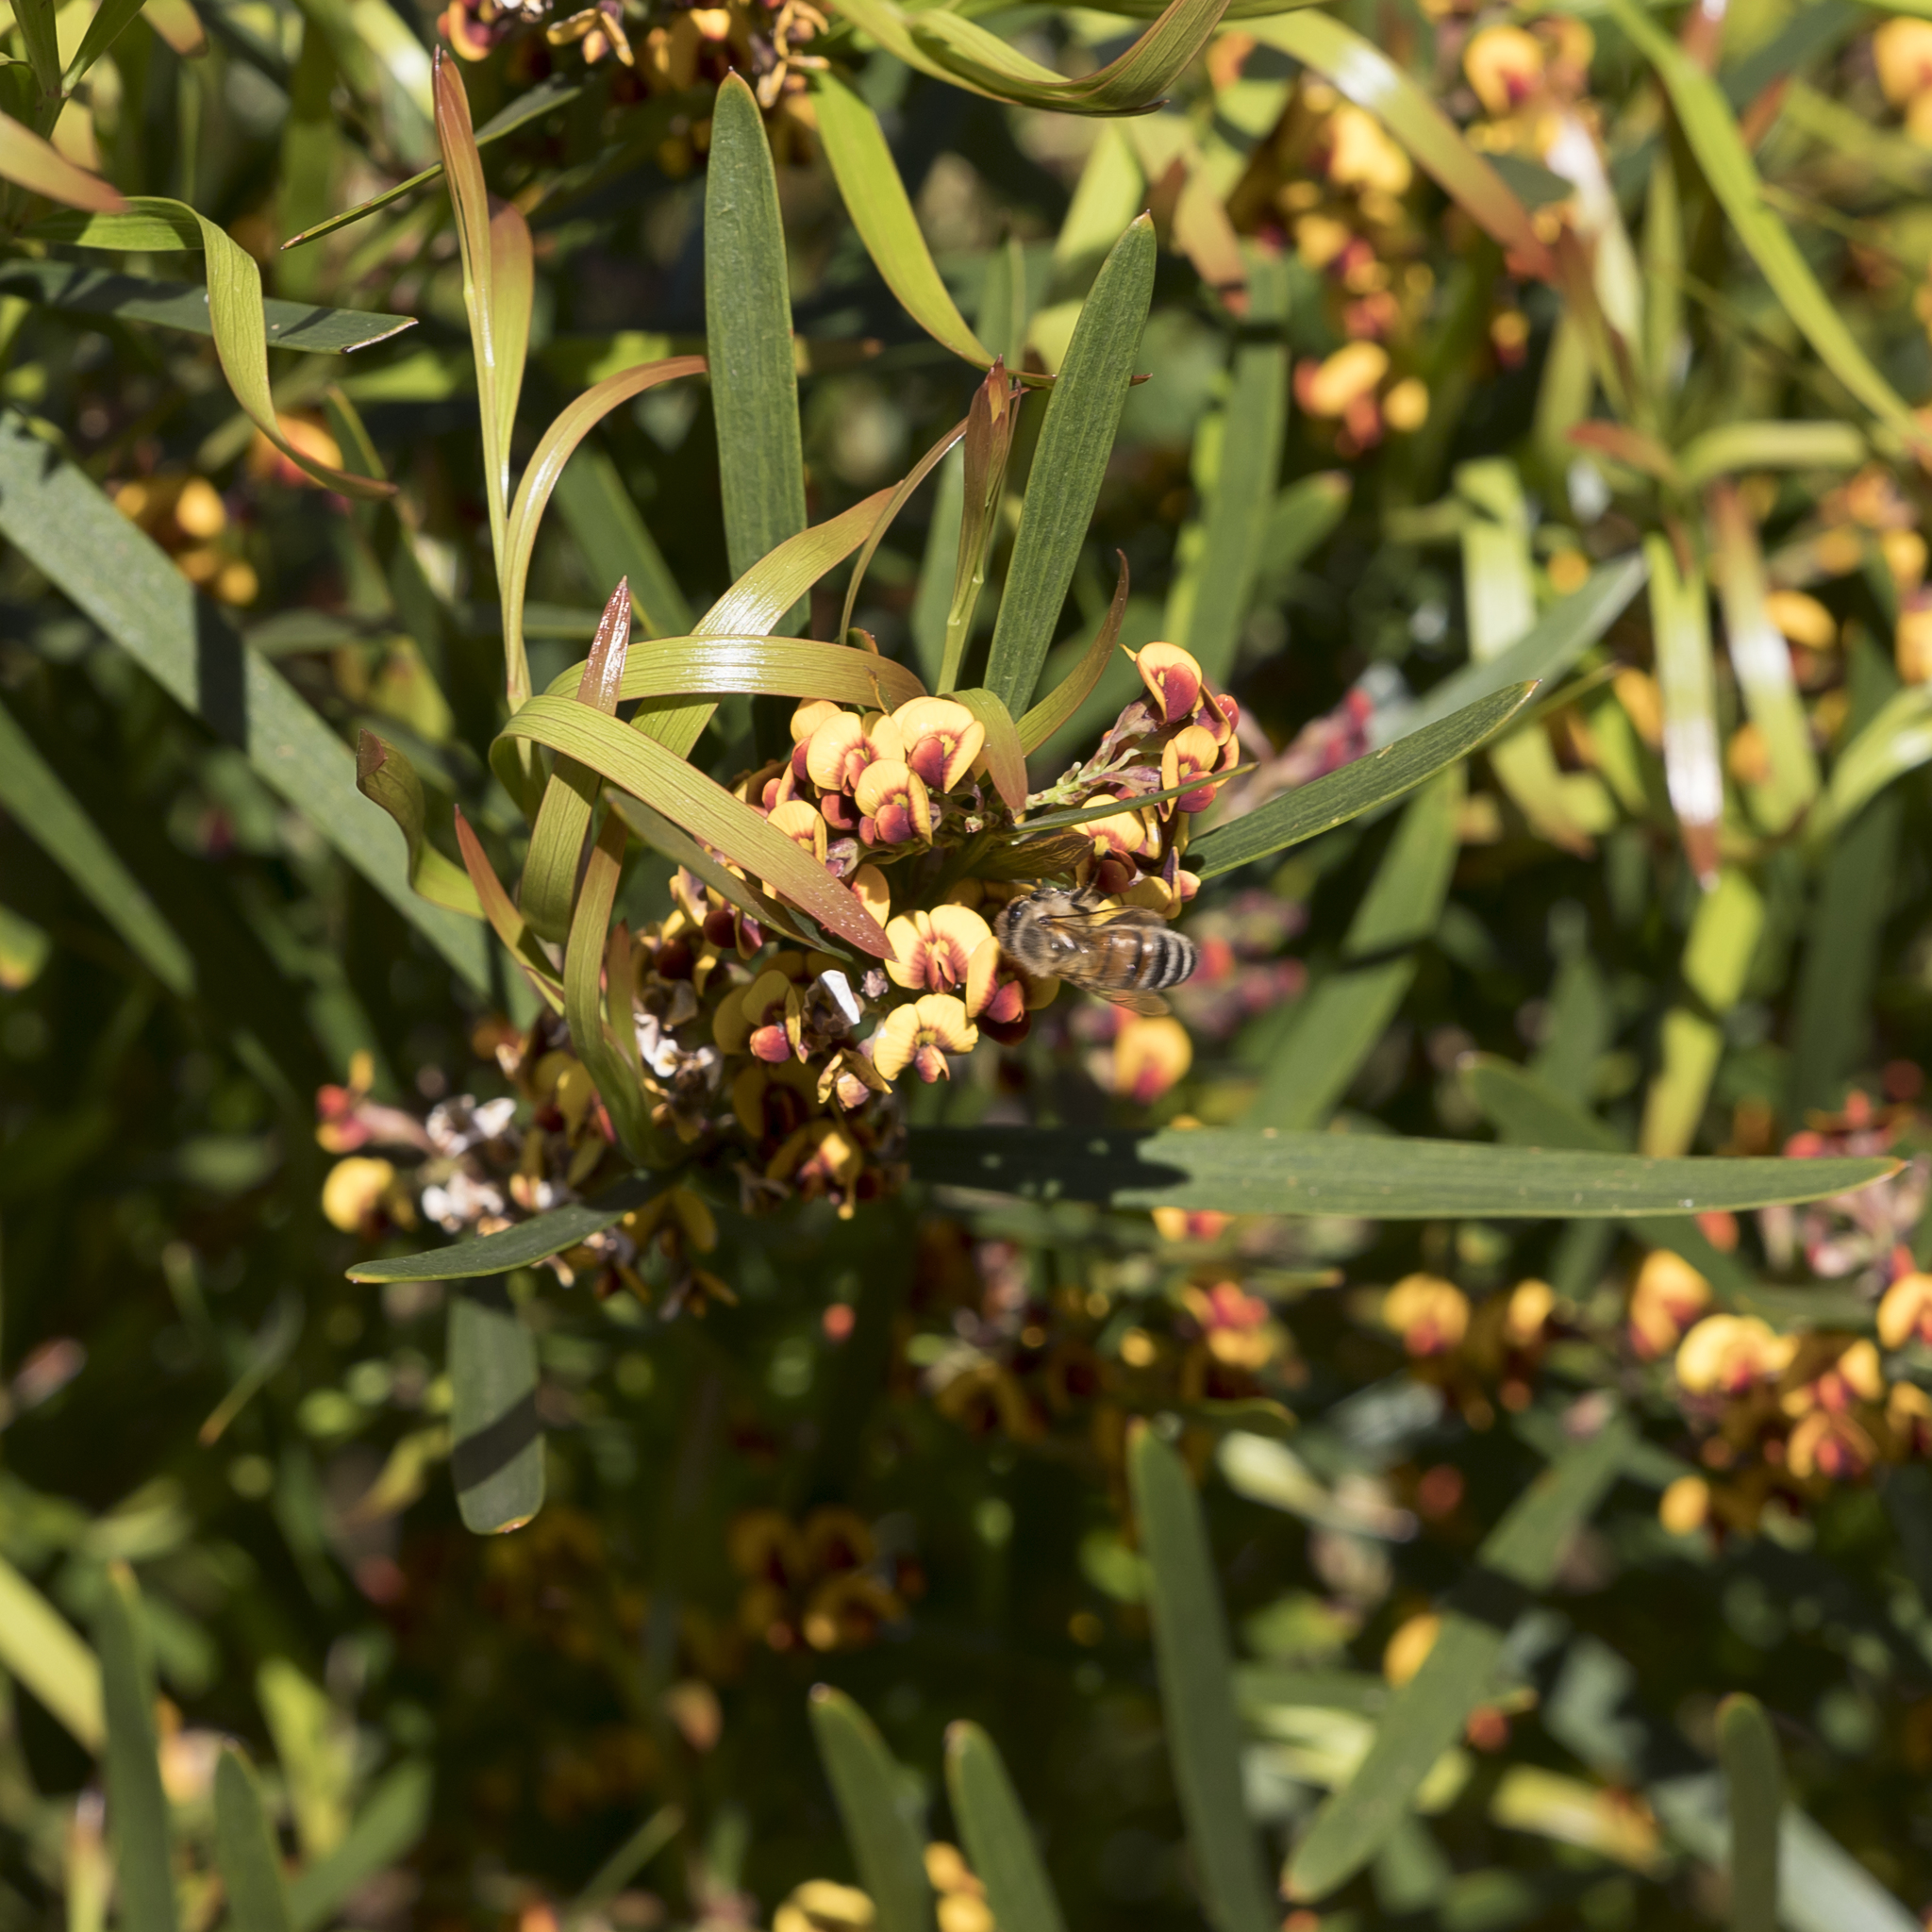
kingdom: Plantae
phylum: Tracheophyta
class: Magnoliopsida
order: Fabales
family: Fabaceae
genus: Daviesia
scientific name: Daviesia leptophylla
